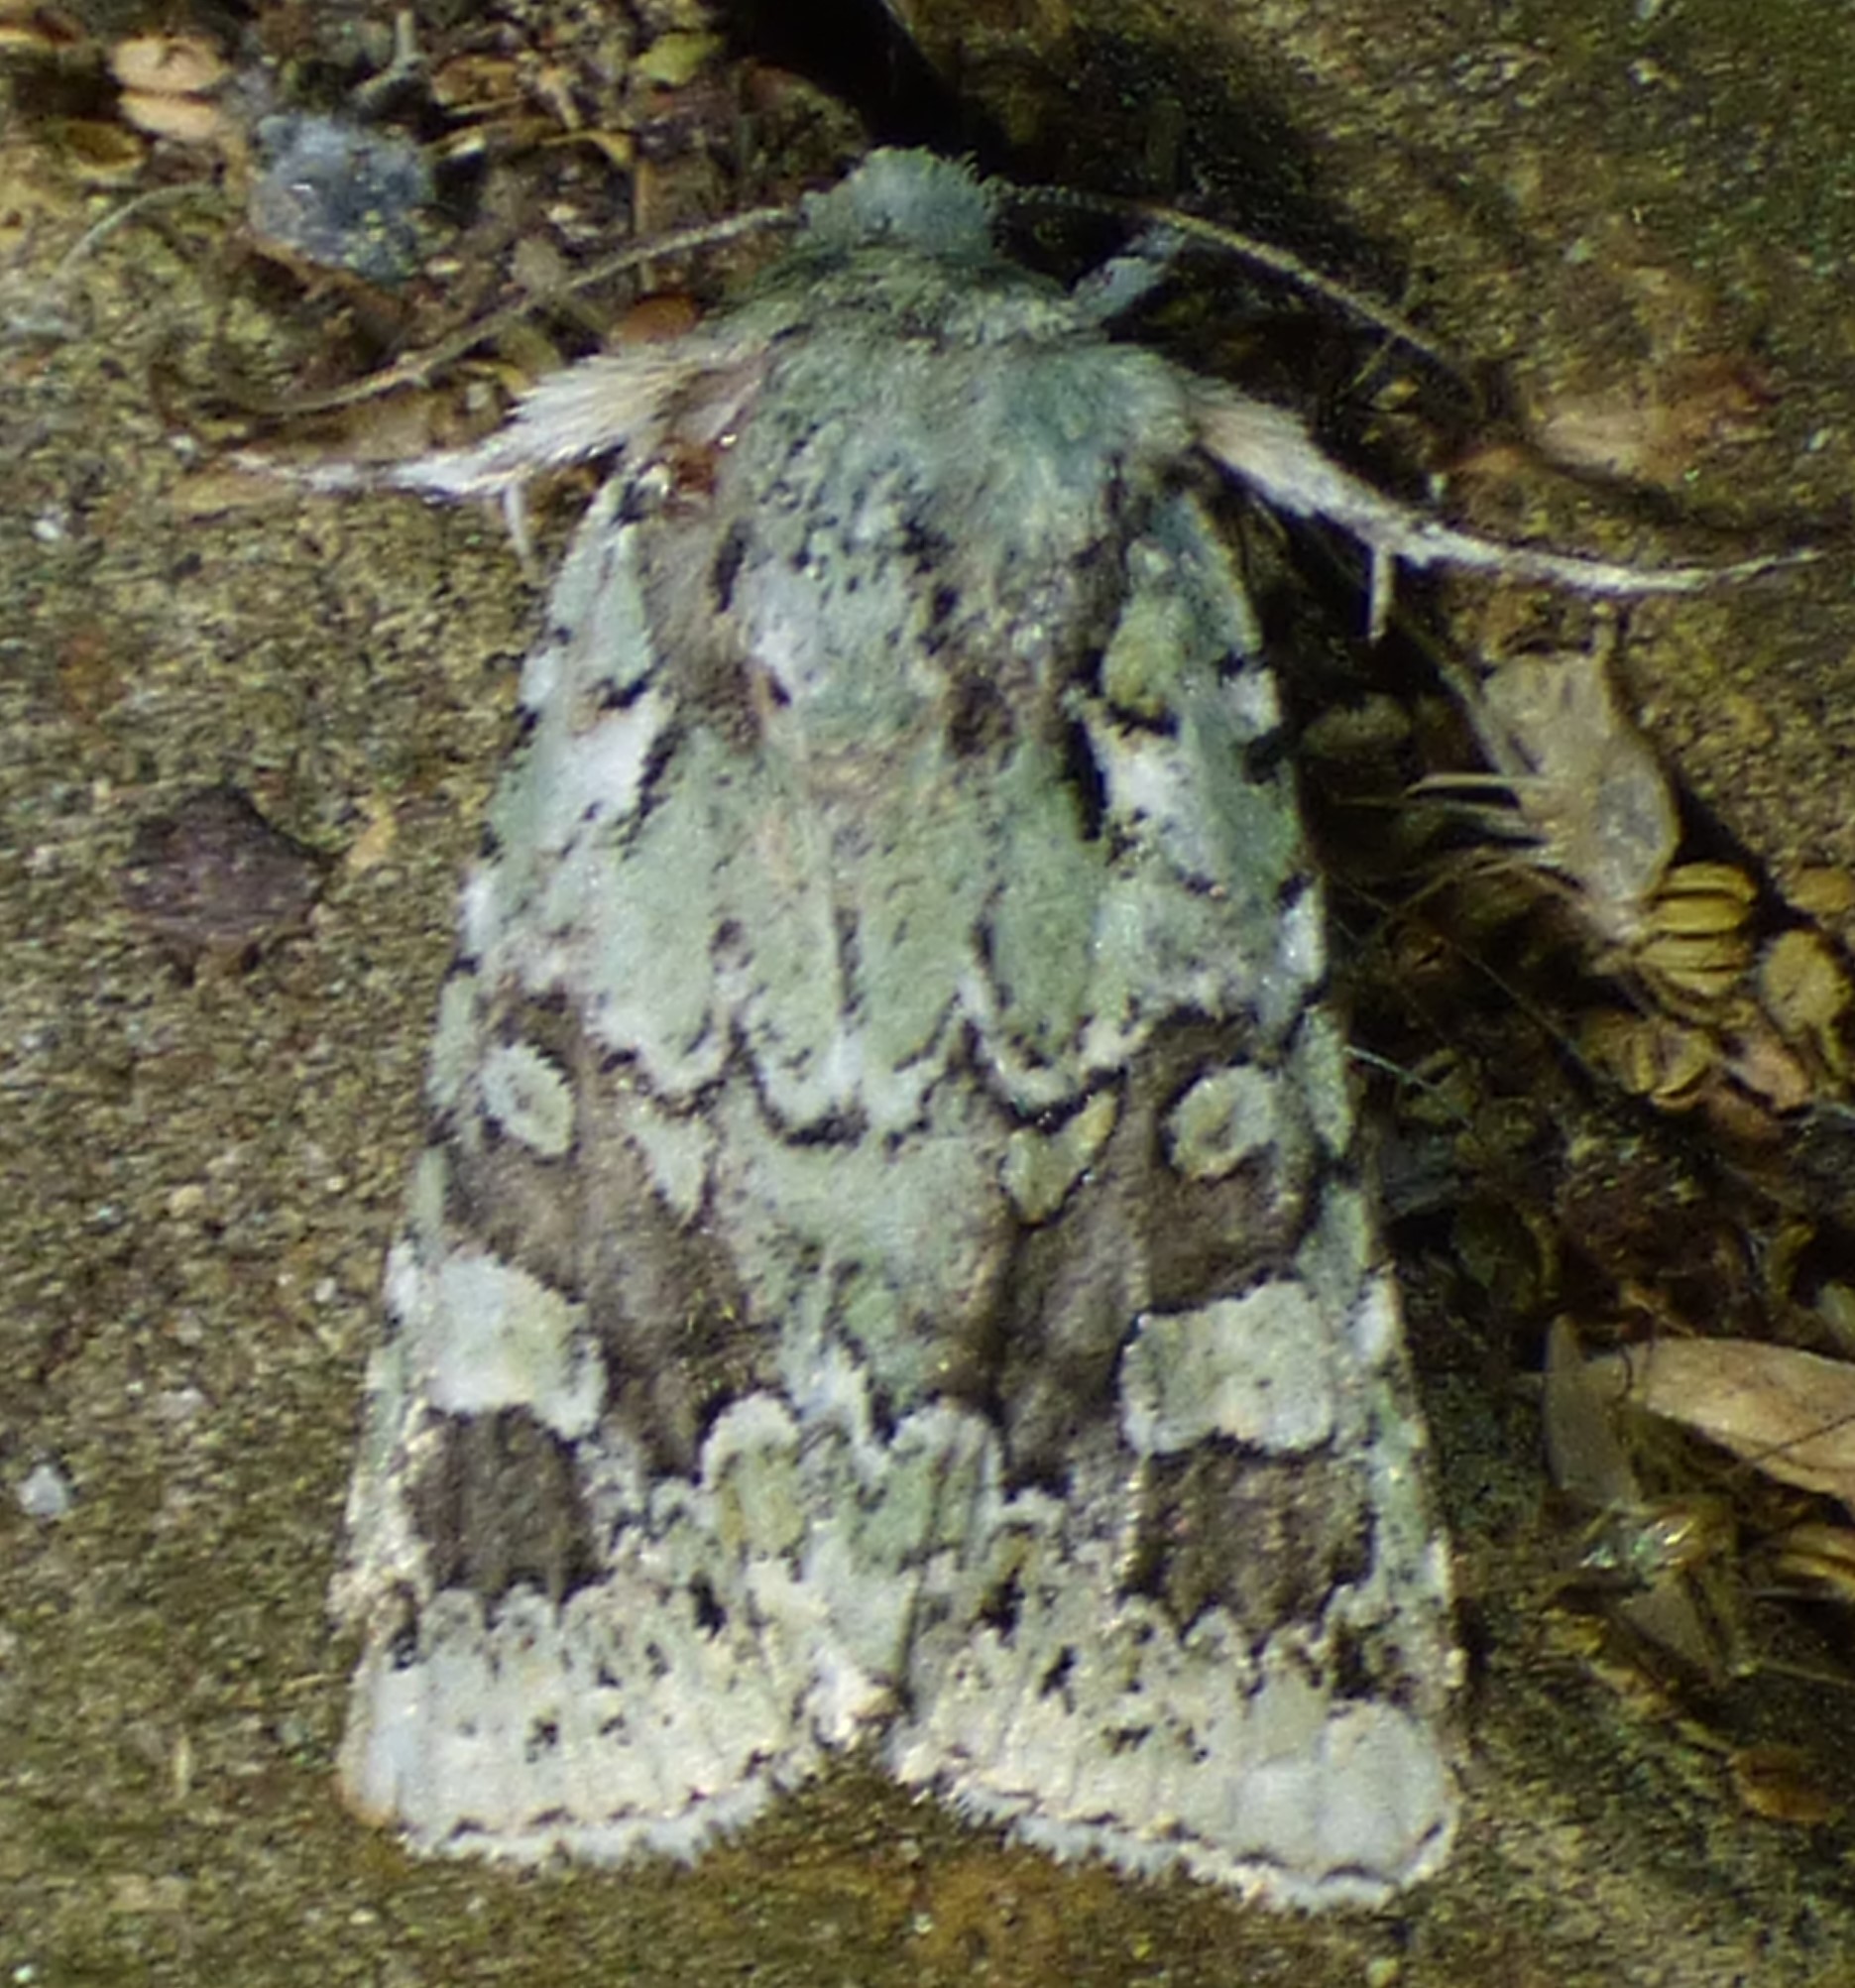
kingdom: Animalia
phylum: Arthropoda
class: Insecta
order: Lepidoptera
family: Noctuidae
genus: Lacinipolia
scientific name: Lacinipolia laudabilis
